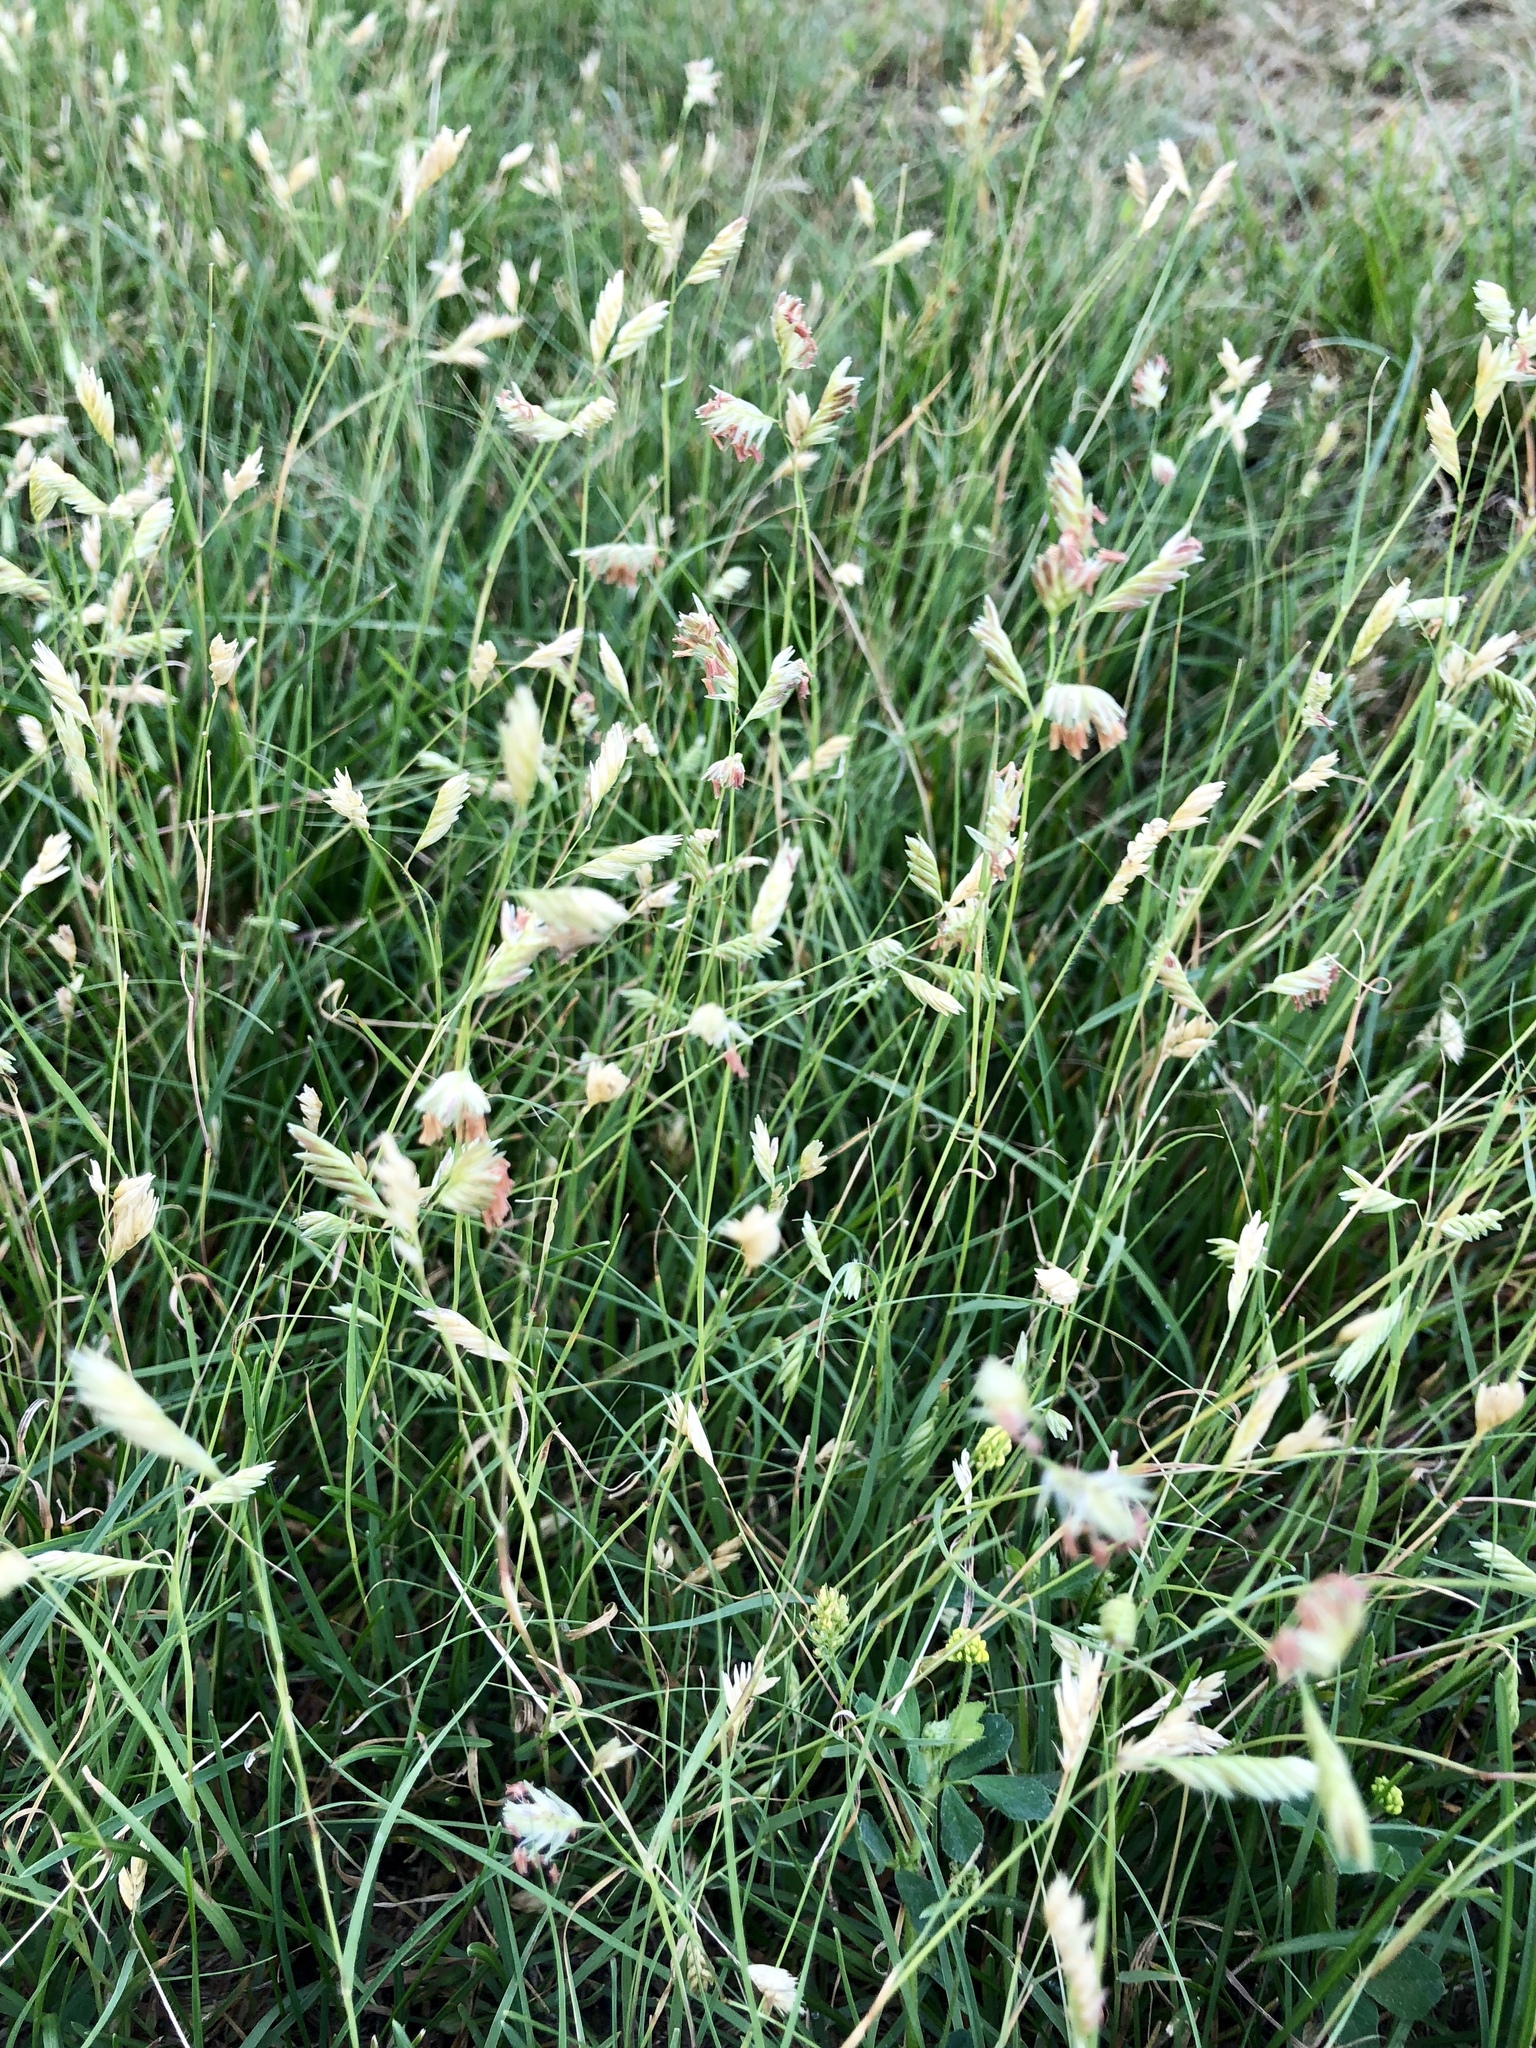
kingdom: Plantae
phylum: Tracheophyta
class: Liliopsida
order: Poales
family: Poaceae
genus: Bouteloua
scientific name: Bouteloua dactyloides
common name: Buffalo grass
